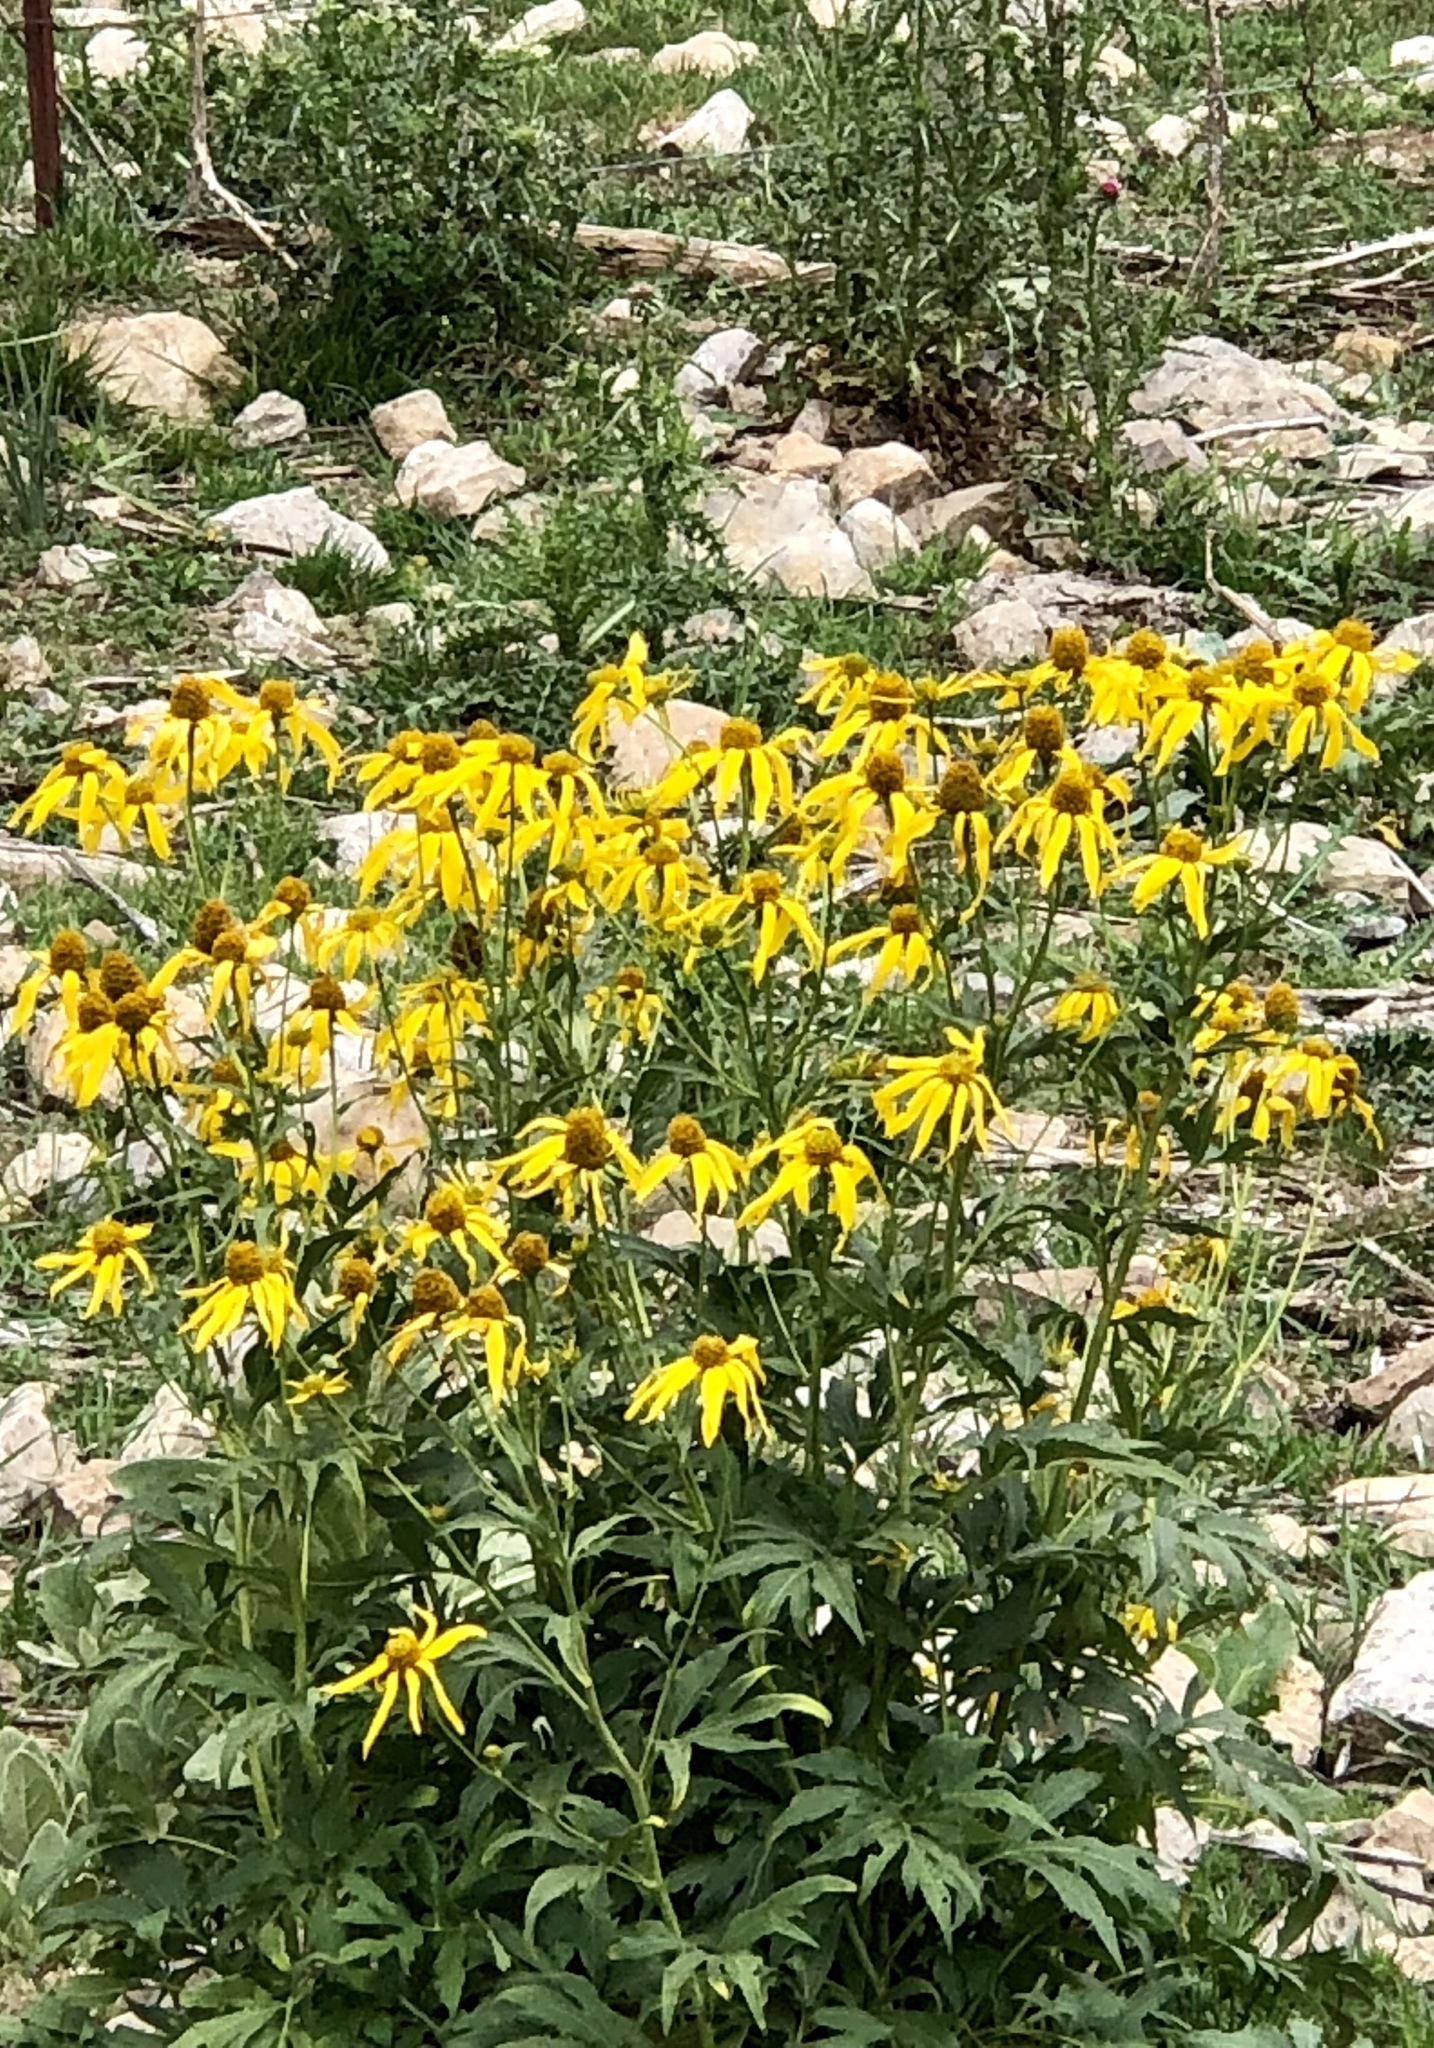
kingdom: Plantae
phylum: Tracheophyta
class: Magnoliopsida
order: Asterales
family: Asteraceae
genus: Rudbeckia
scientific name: Rudbeckia laciniata
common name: Coneflower
